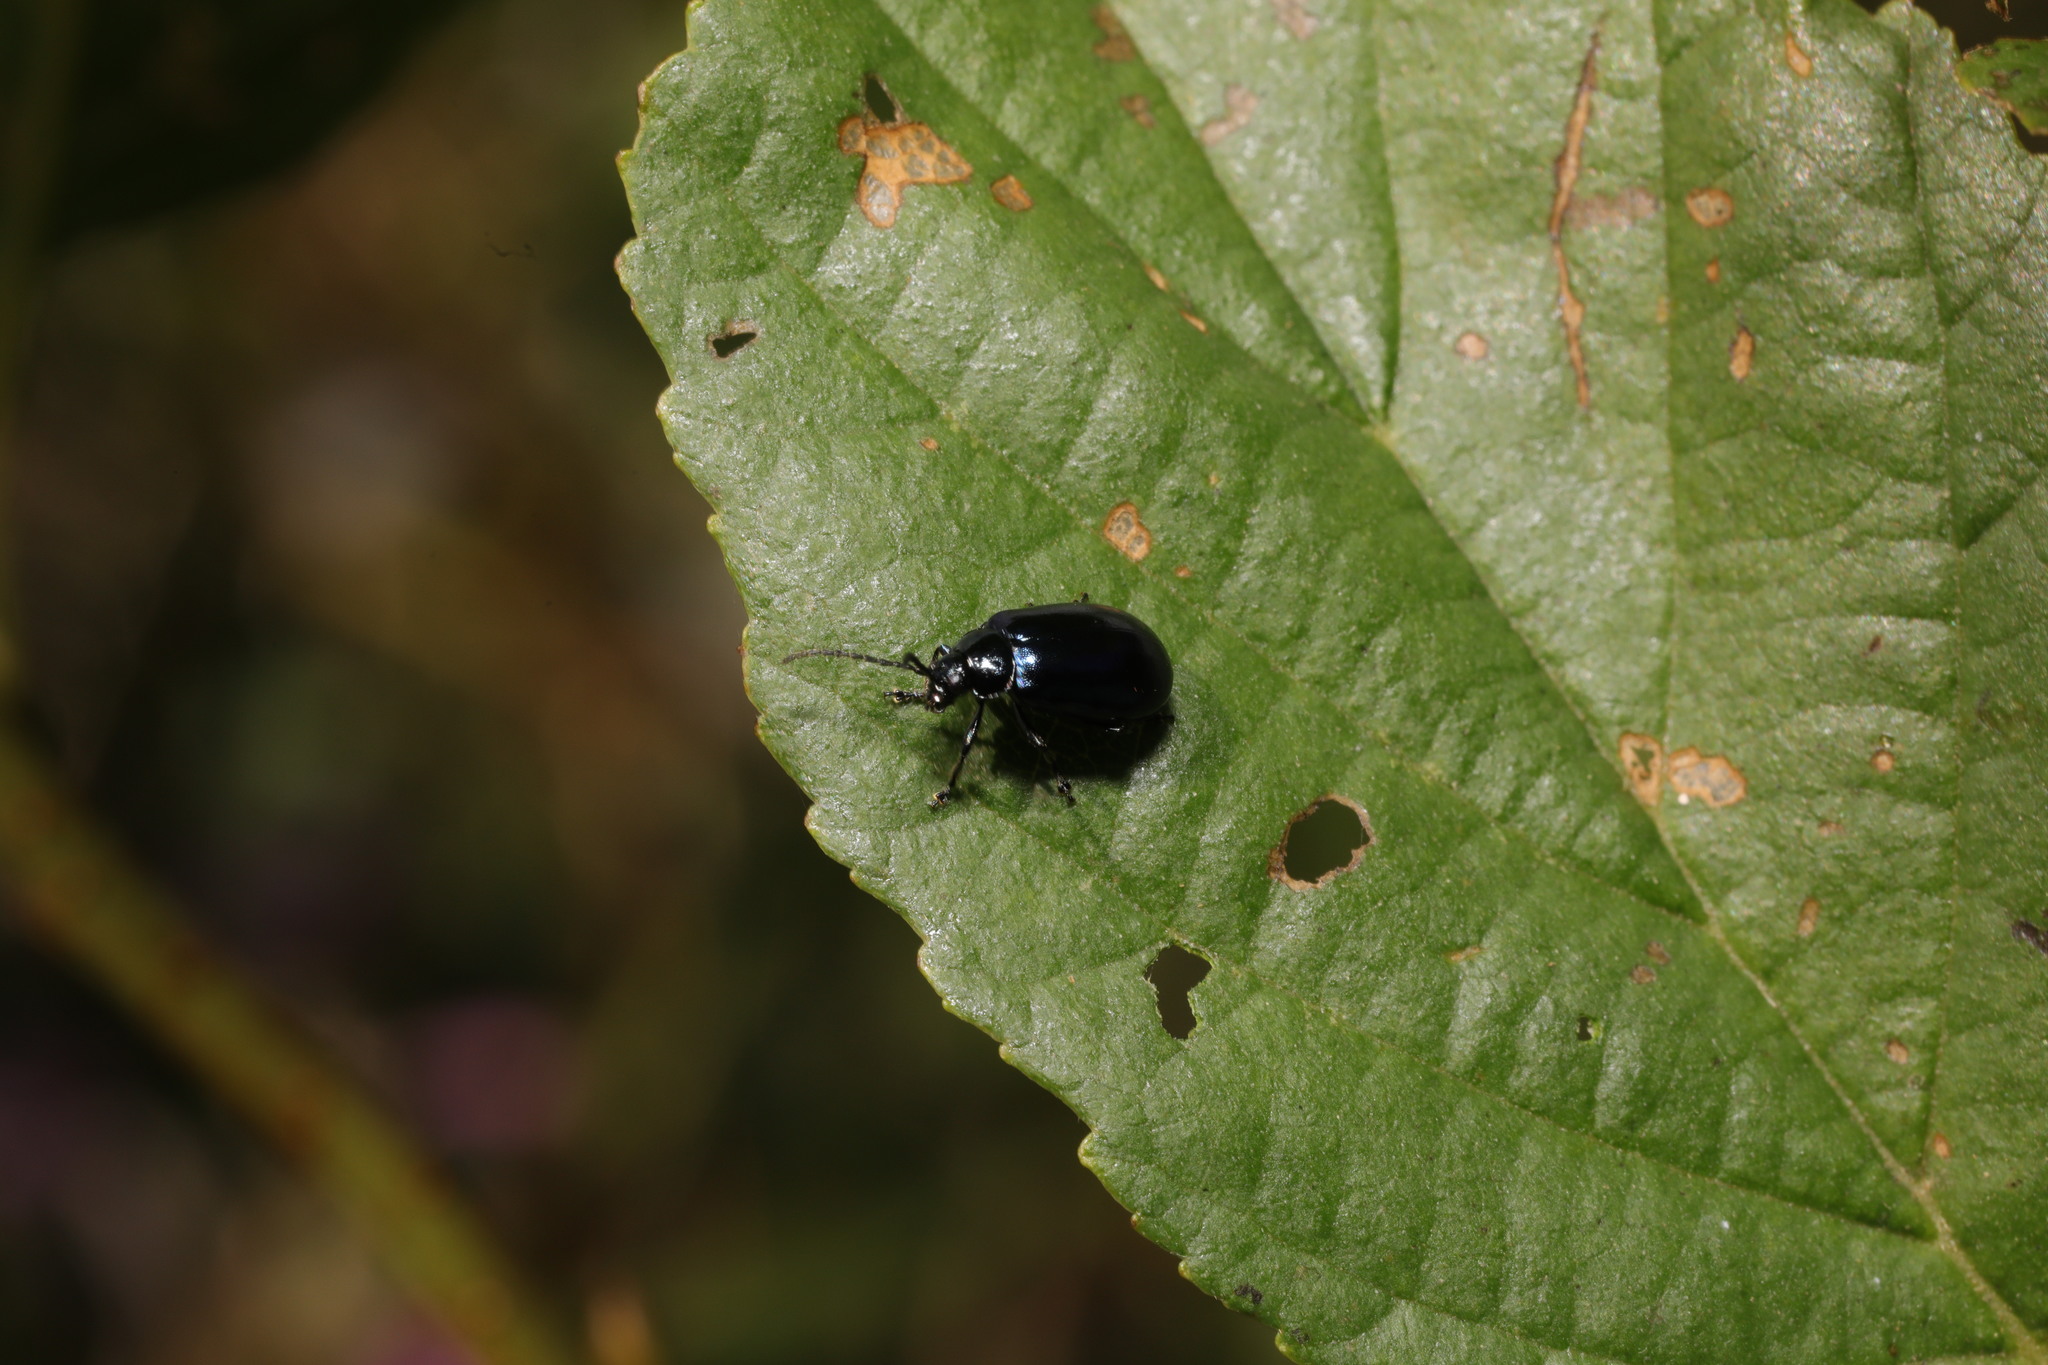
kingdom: Animalia
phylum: Arthropoda
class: Insecta
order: Coleoptera
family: Chrysomelidae
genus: Agelastica
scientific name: Agelastica alni
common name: Alder leaf beetle
